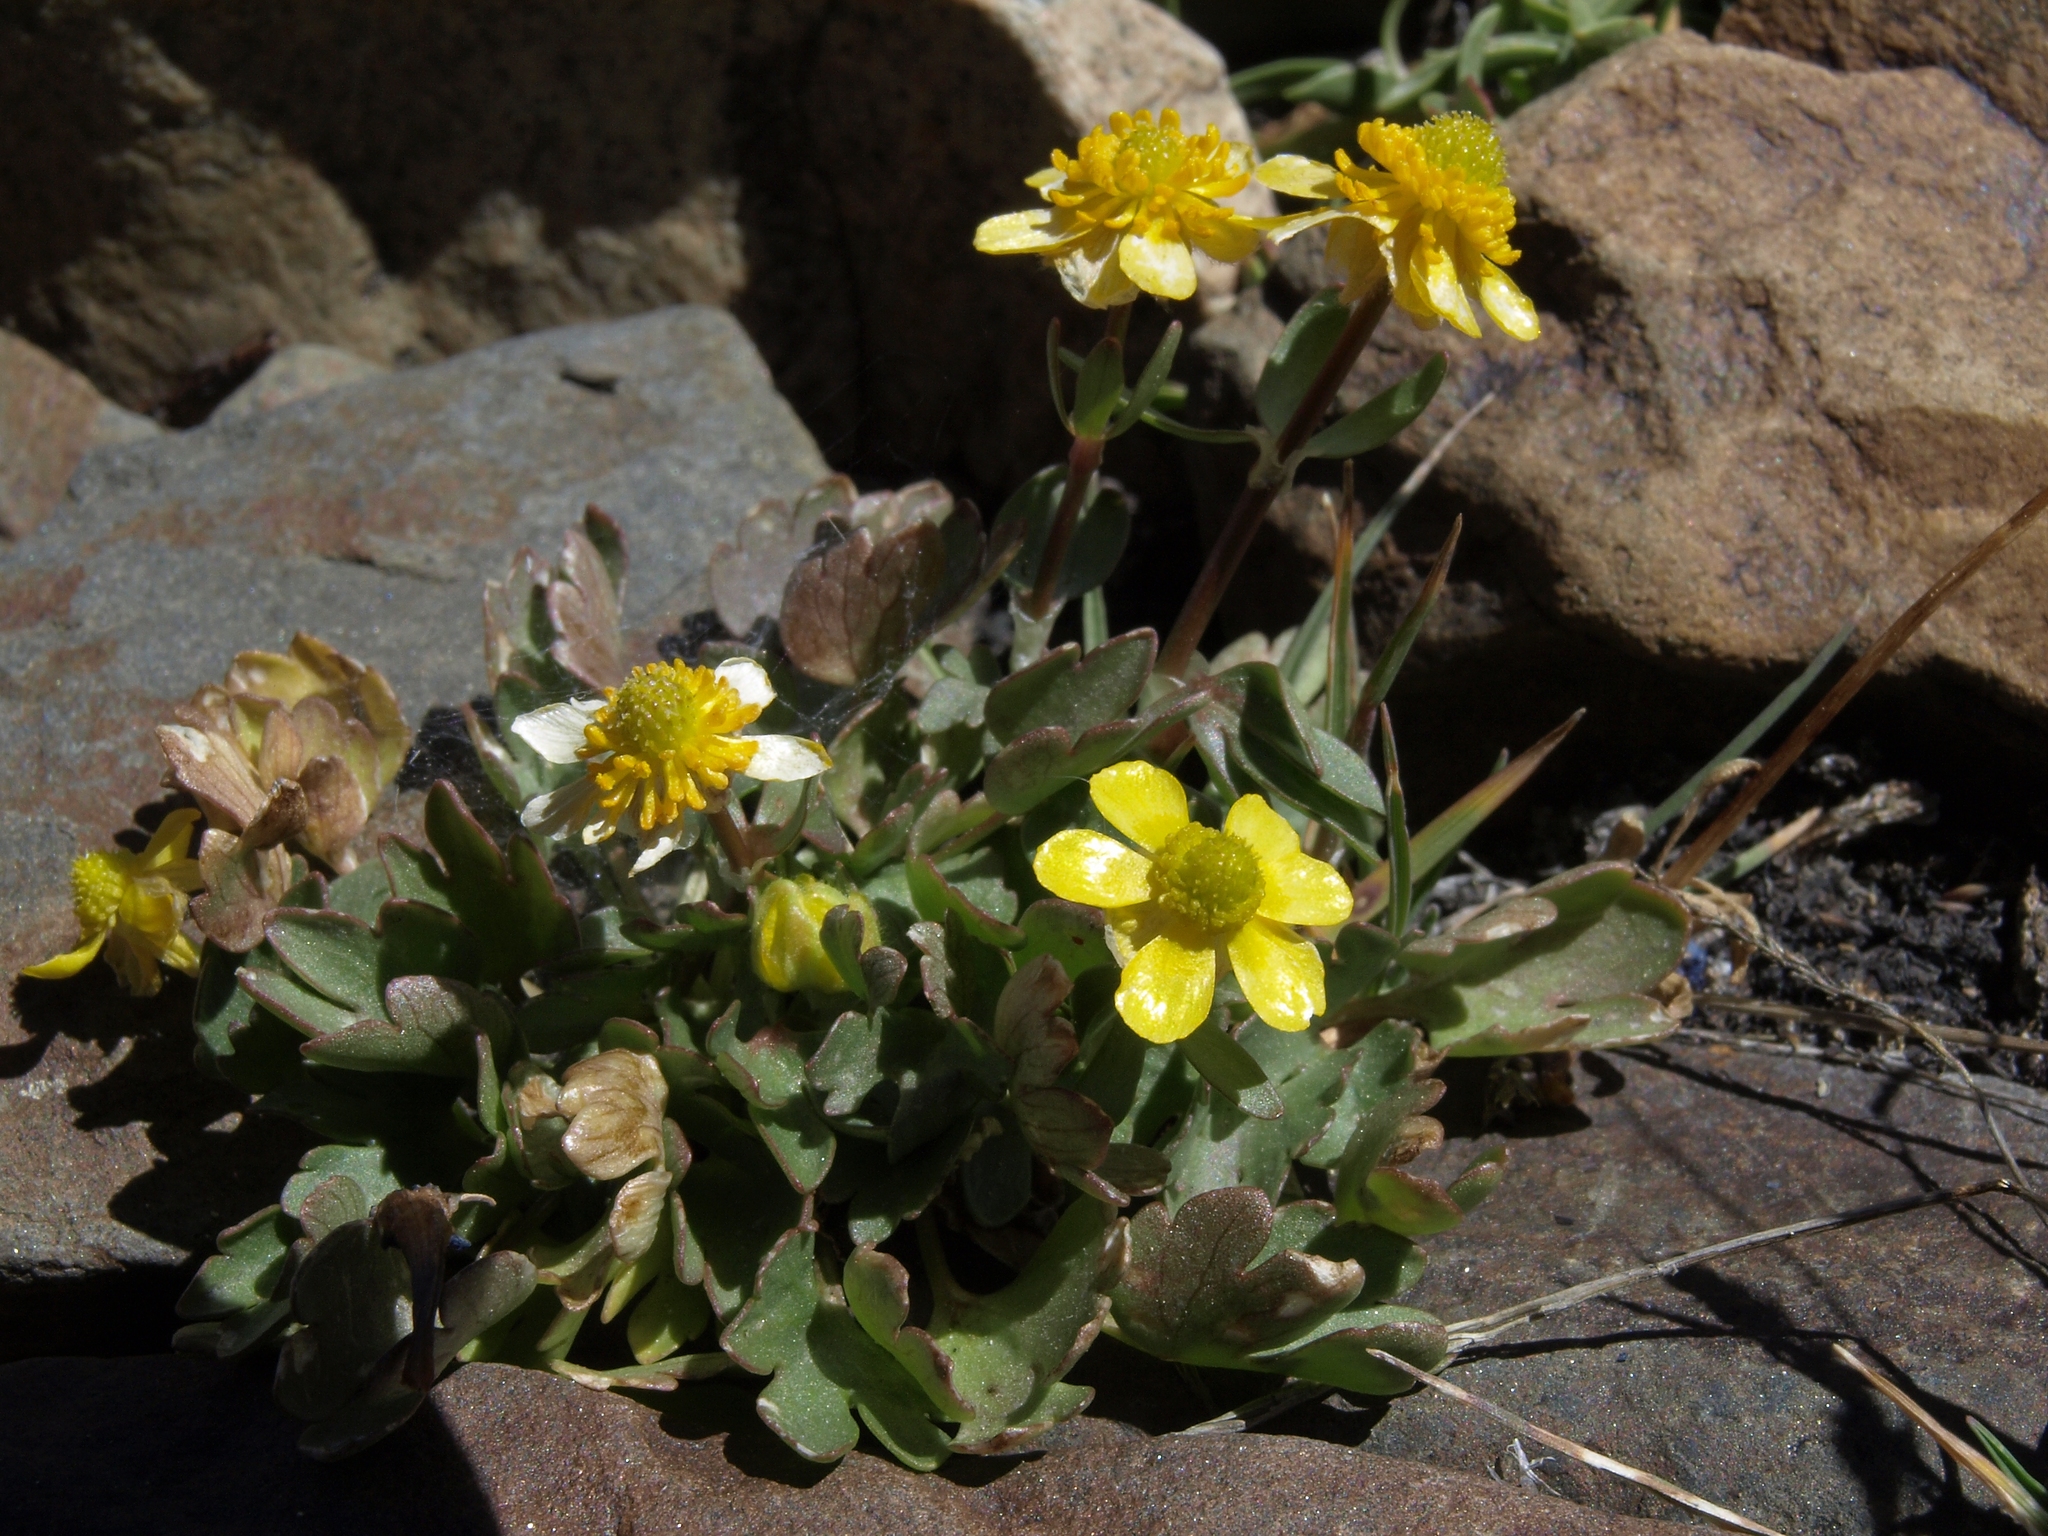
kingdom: Plantae
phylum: Tracheophyta
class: Magnoliopsida
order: Ranunculales
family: Ranunculaceae
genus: Ranunculus
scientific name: Ranunculus eschscholtzii
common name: Eschscholtz's buttercup
